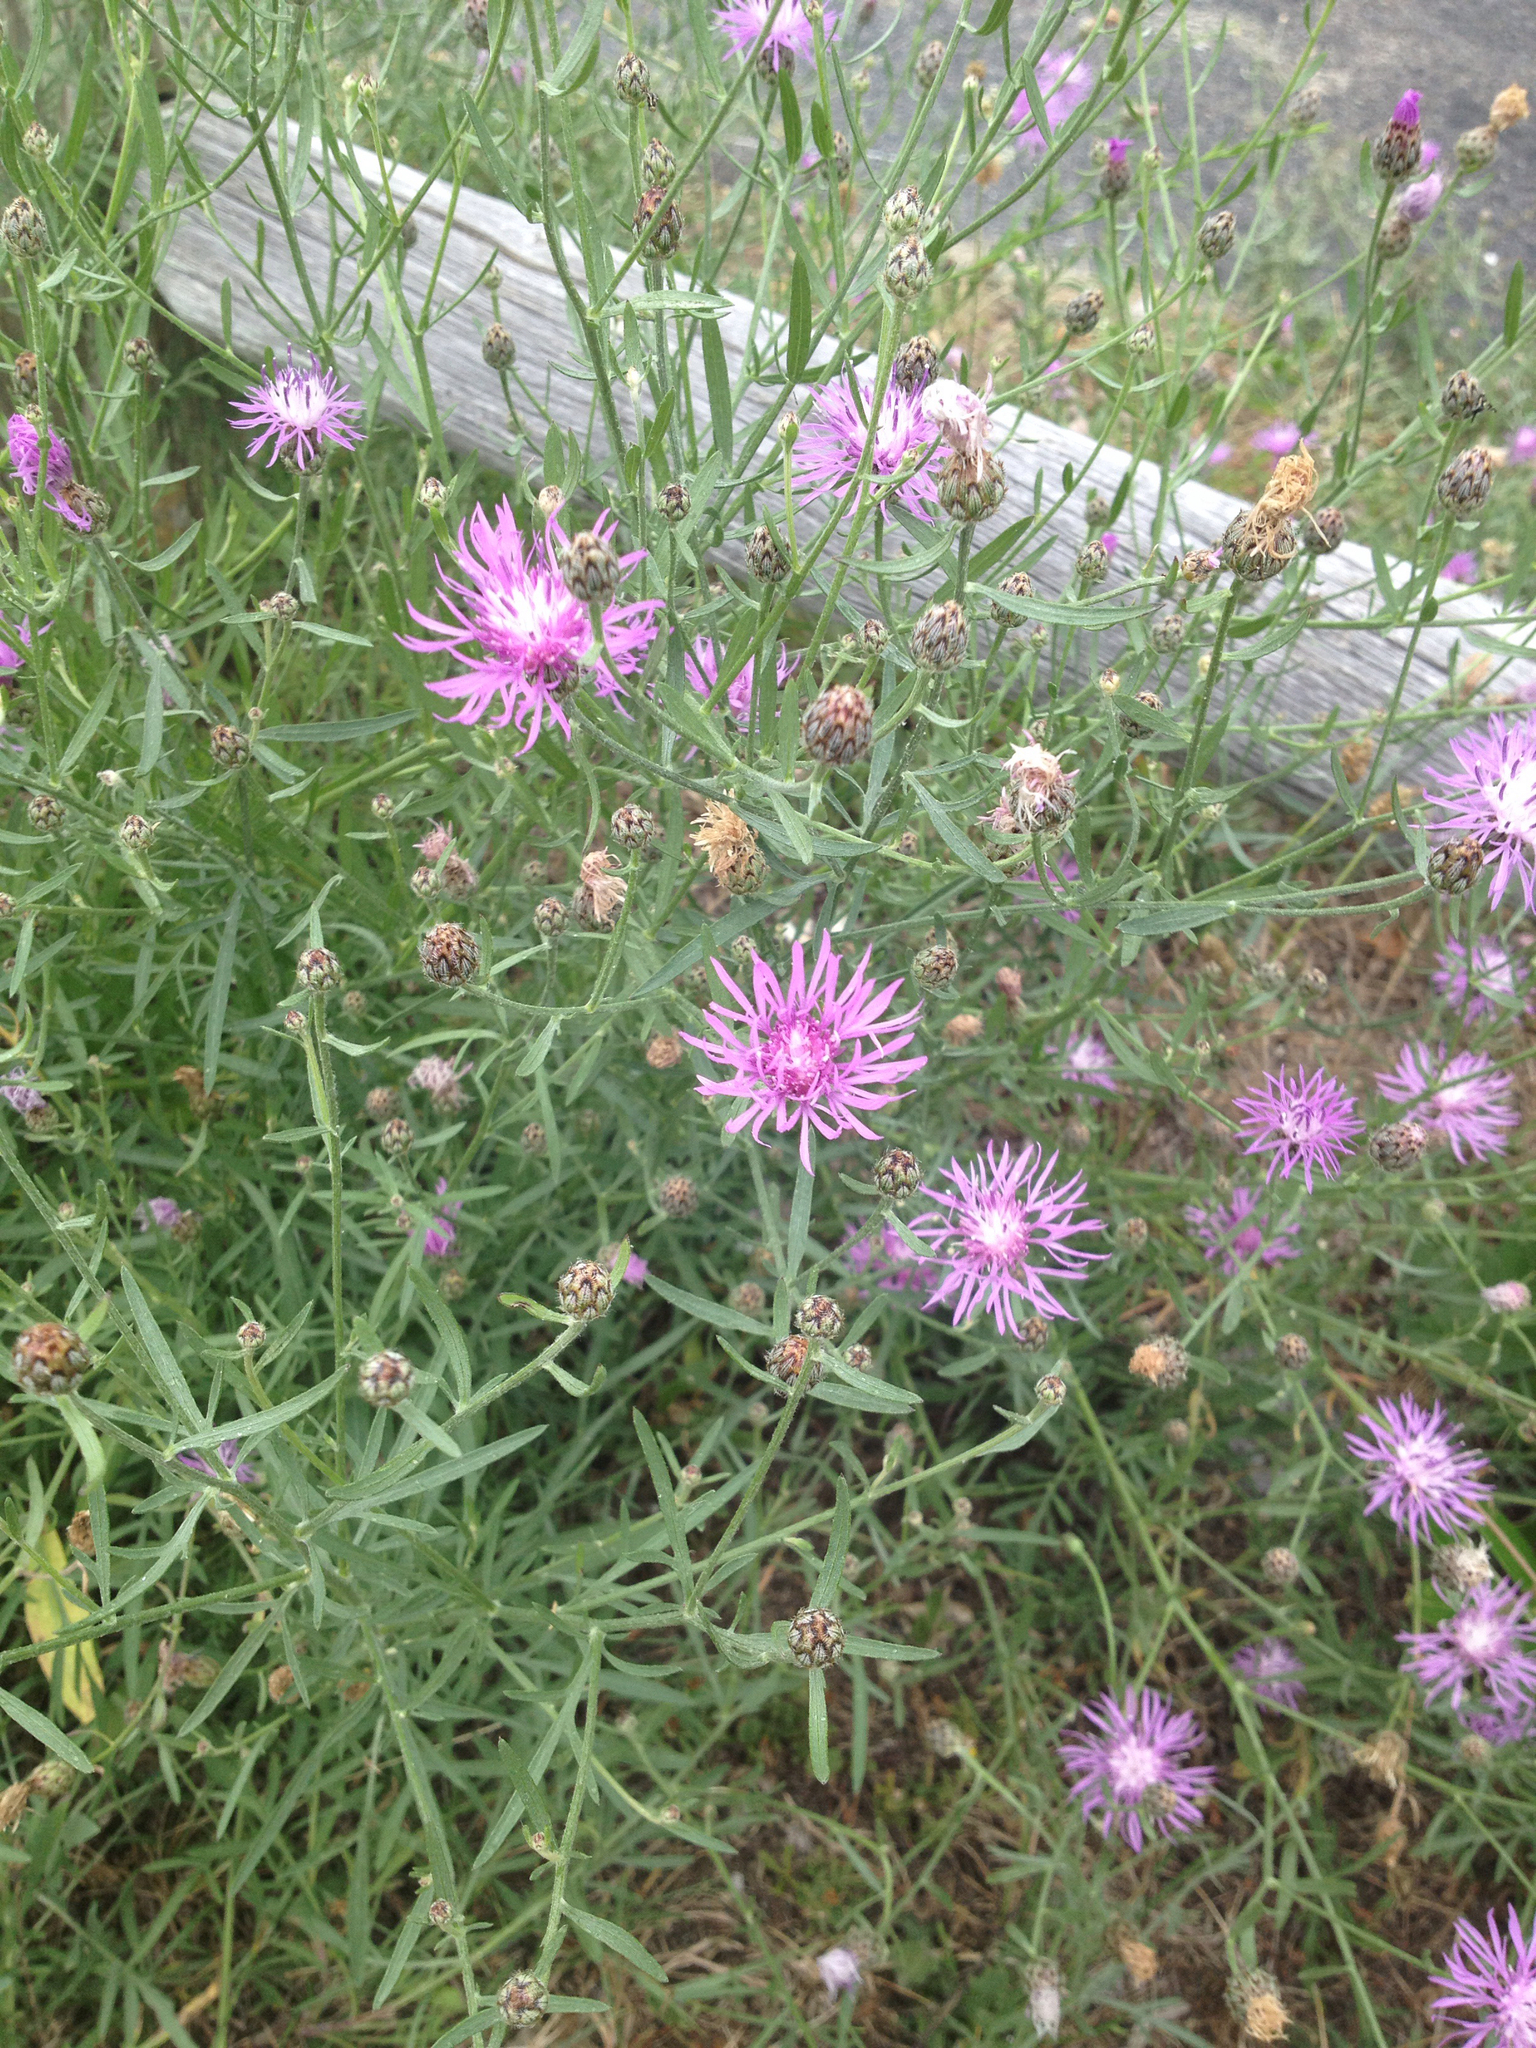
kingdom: Plantae
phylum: Tracheophyta
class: Magnoliopsida
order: Asterales
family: Asteraceae
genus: Centaurea
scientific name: Centaurea stoebe
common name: Spotted knapweed
